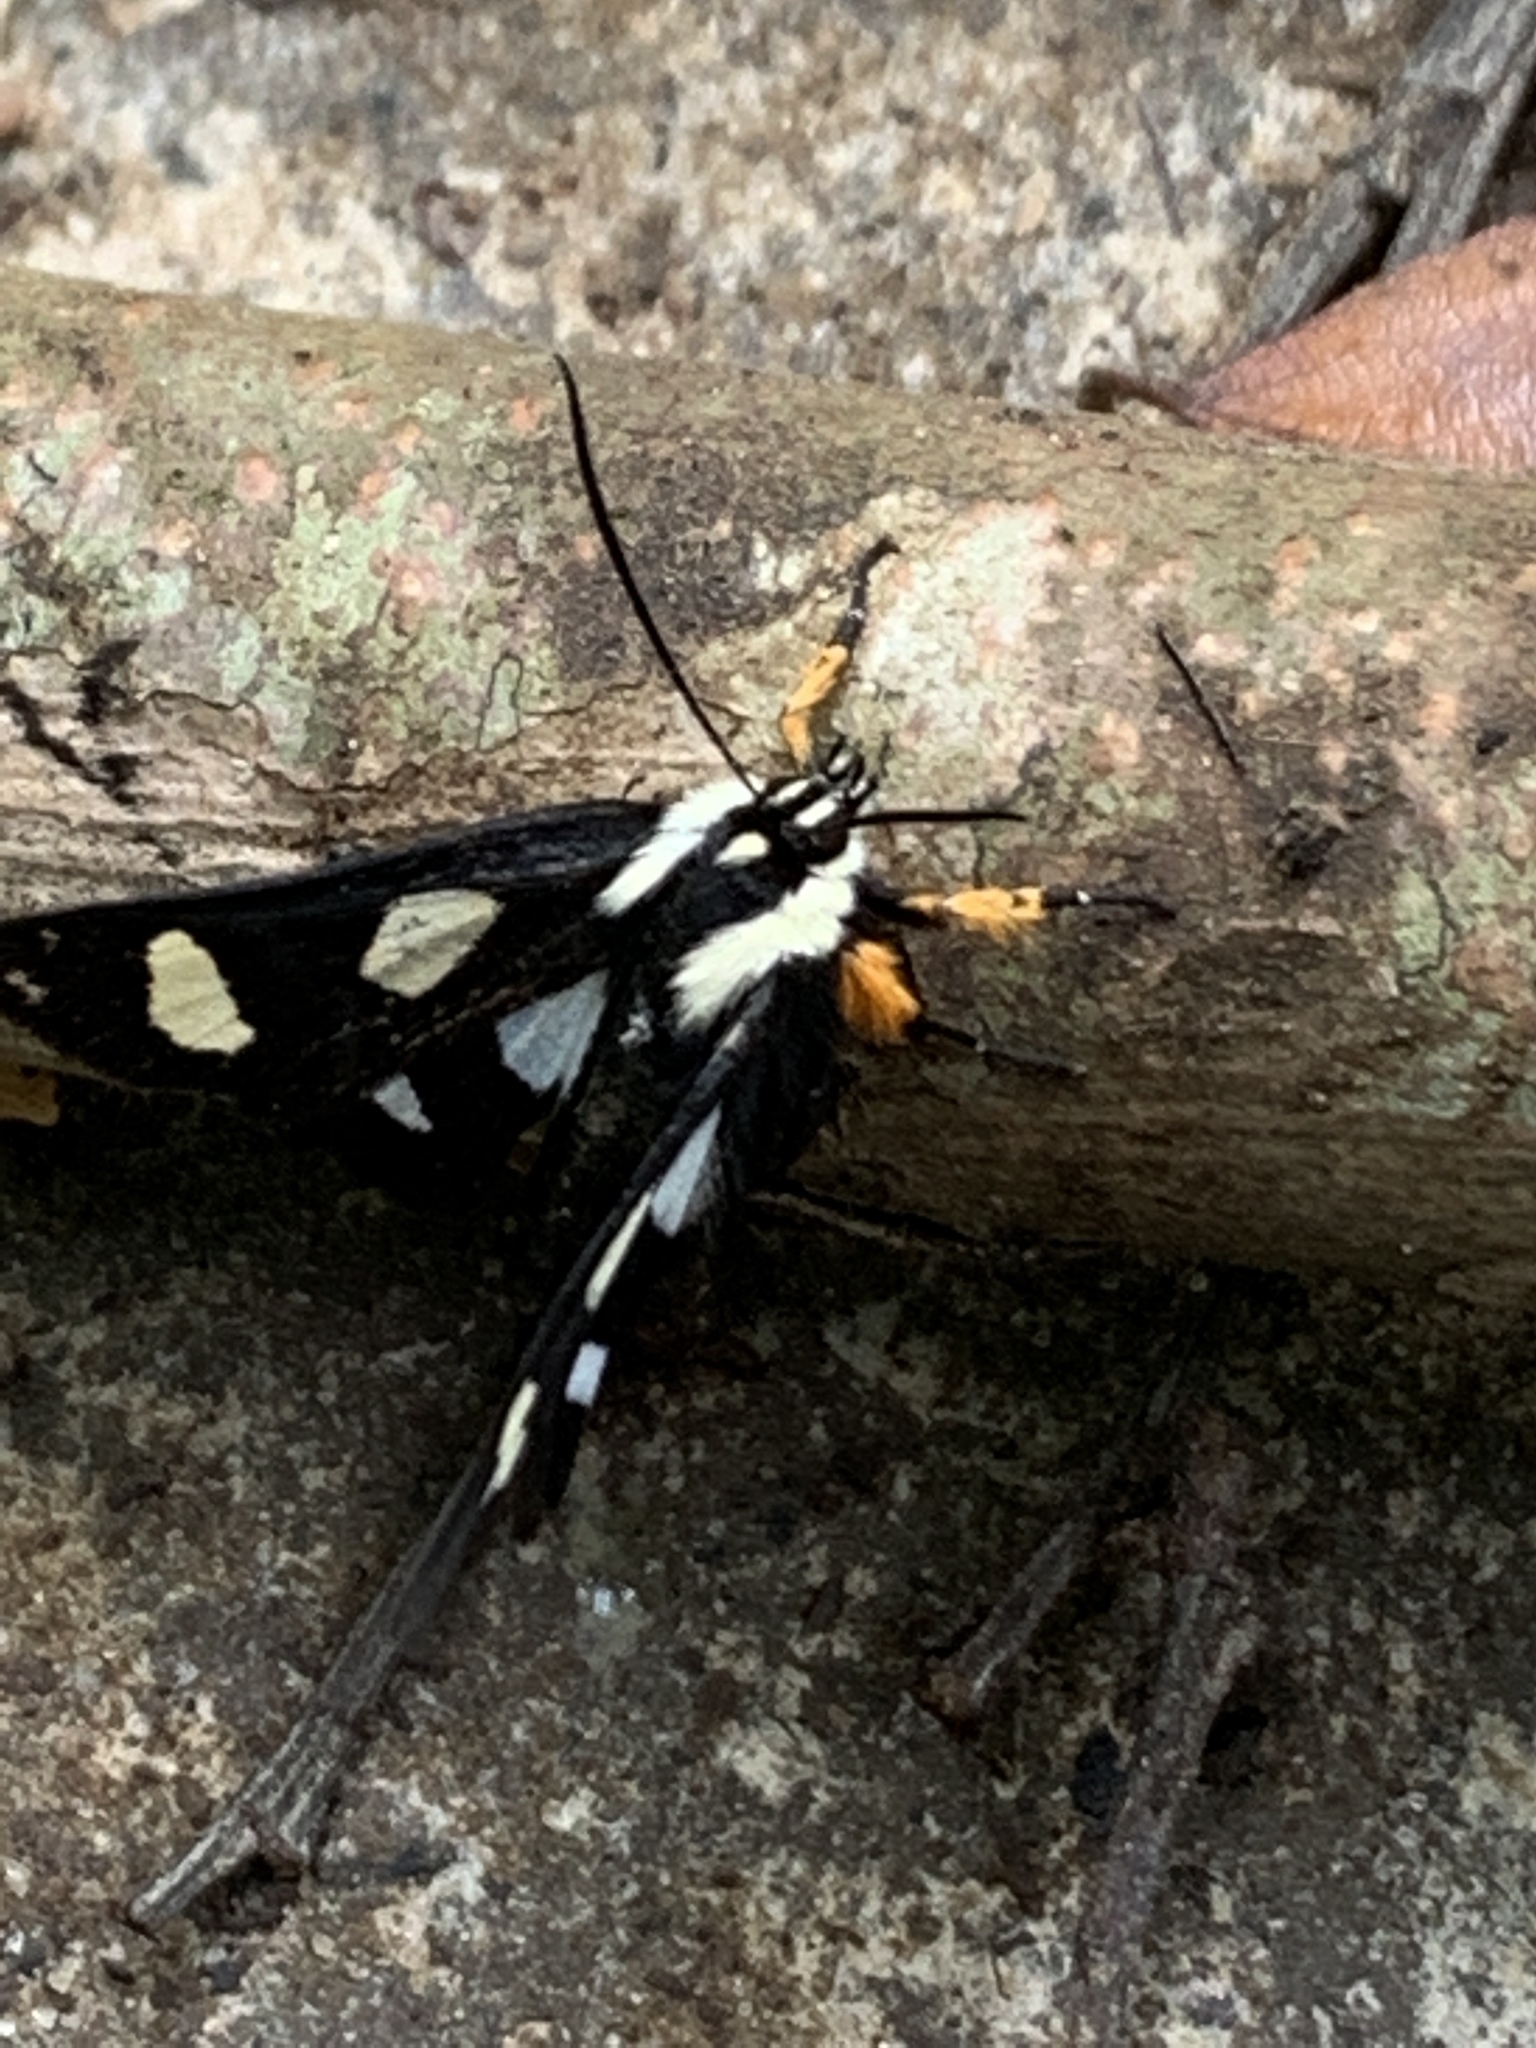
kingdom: Animalia
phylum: Arthropoda
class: Insecta
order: Lepidoptera
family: Noctuidae
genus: Alypia
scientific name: Alypia octomaculata
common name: Eight-spotted forester
